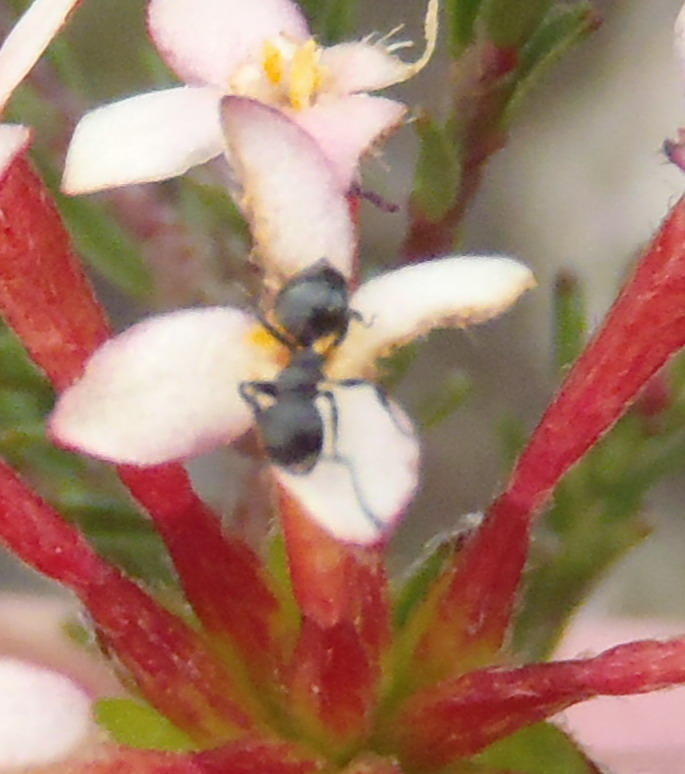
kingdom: Animalia
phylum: Arthropoda
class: Insecta
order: Hymenoptera
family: Formicidae
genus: Crematogaster
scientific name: Crematogaster peringueyi
